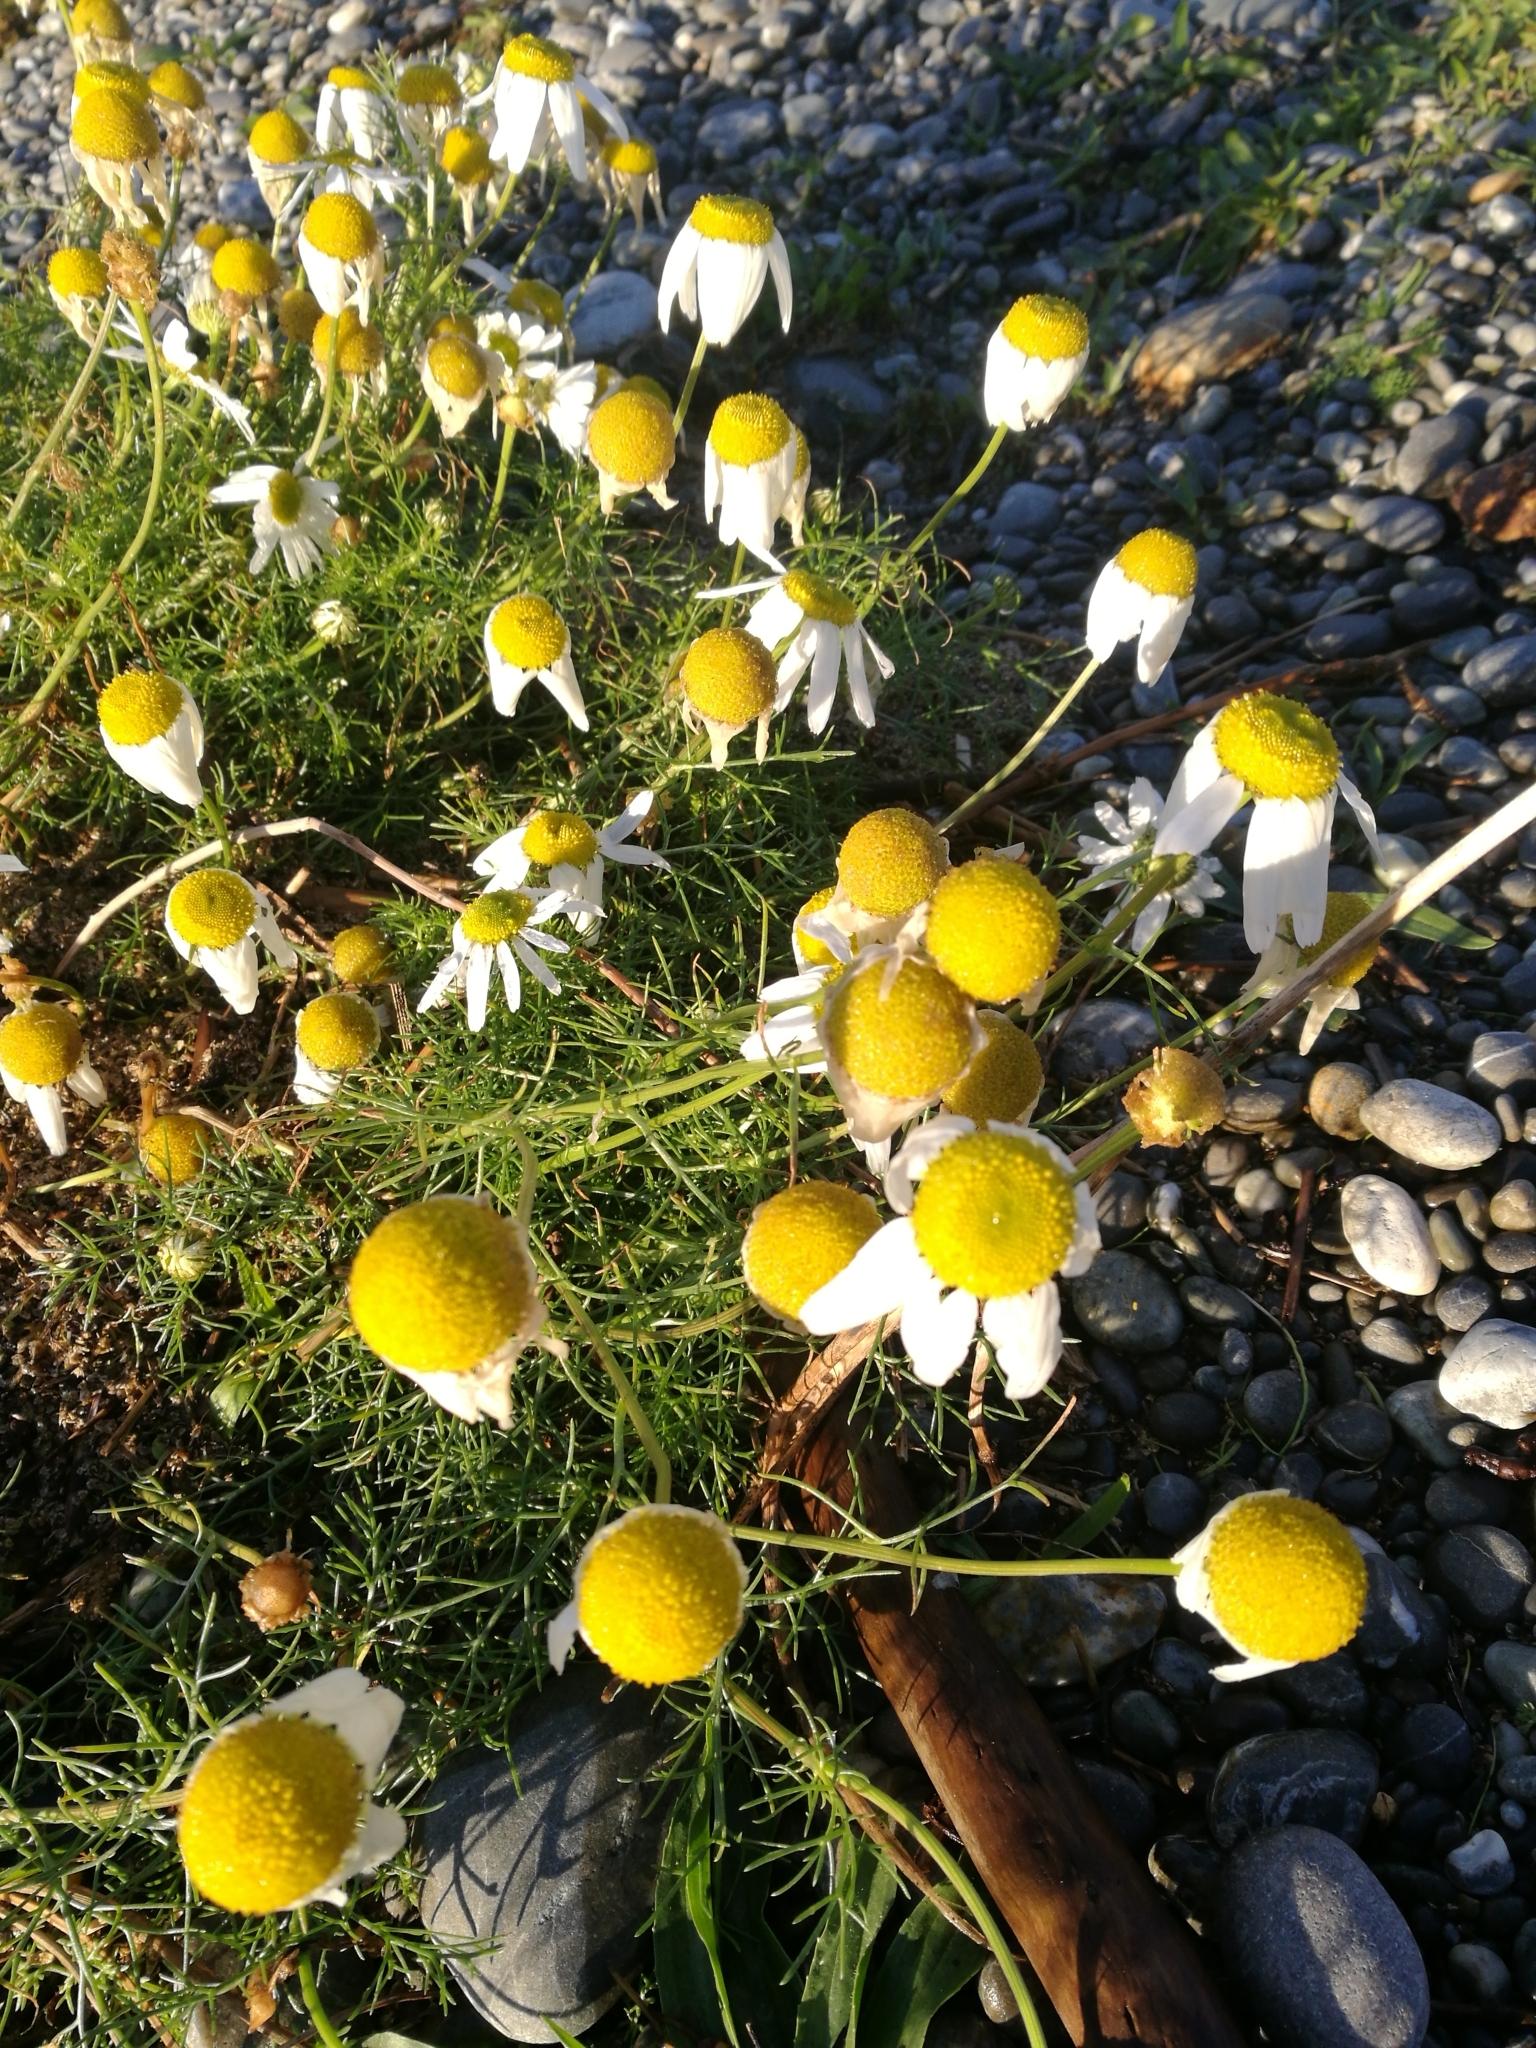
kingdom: Plantae
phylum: Tracheophyta
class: Magnoliopsida
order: Asterales
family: Asteraceae
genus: Tripleurospermum
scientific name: Tripleurospermum inodorum
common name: Scentless mayweed
